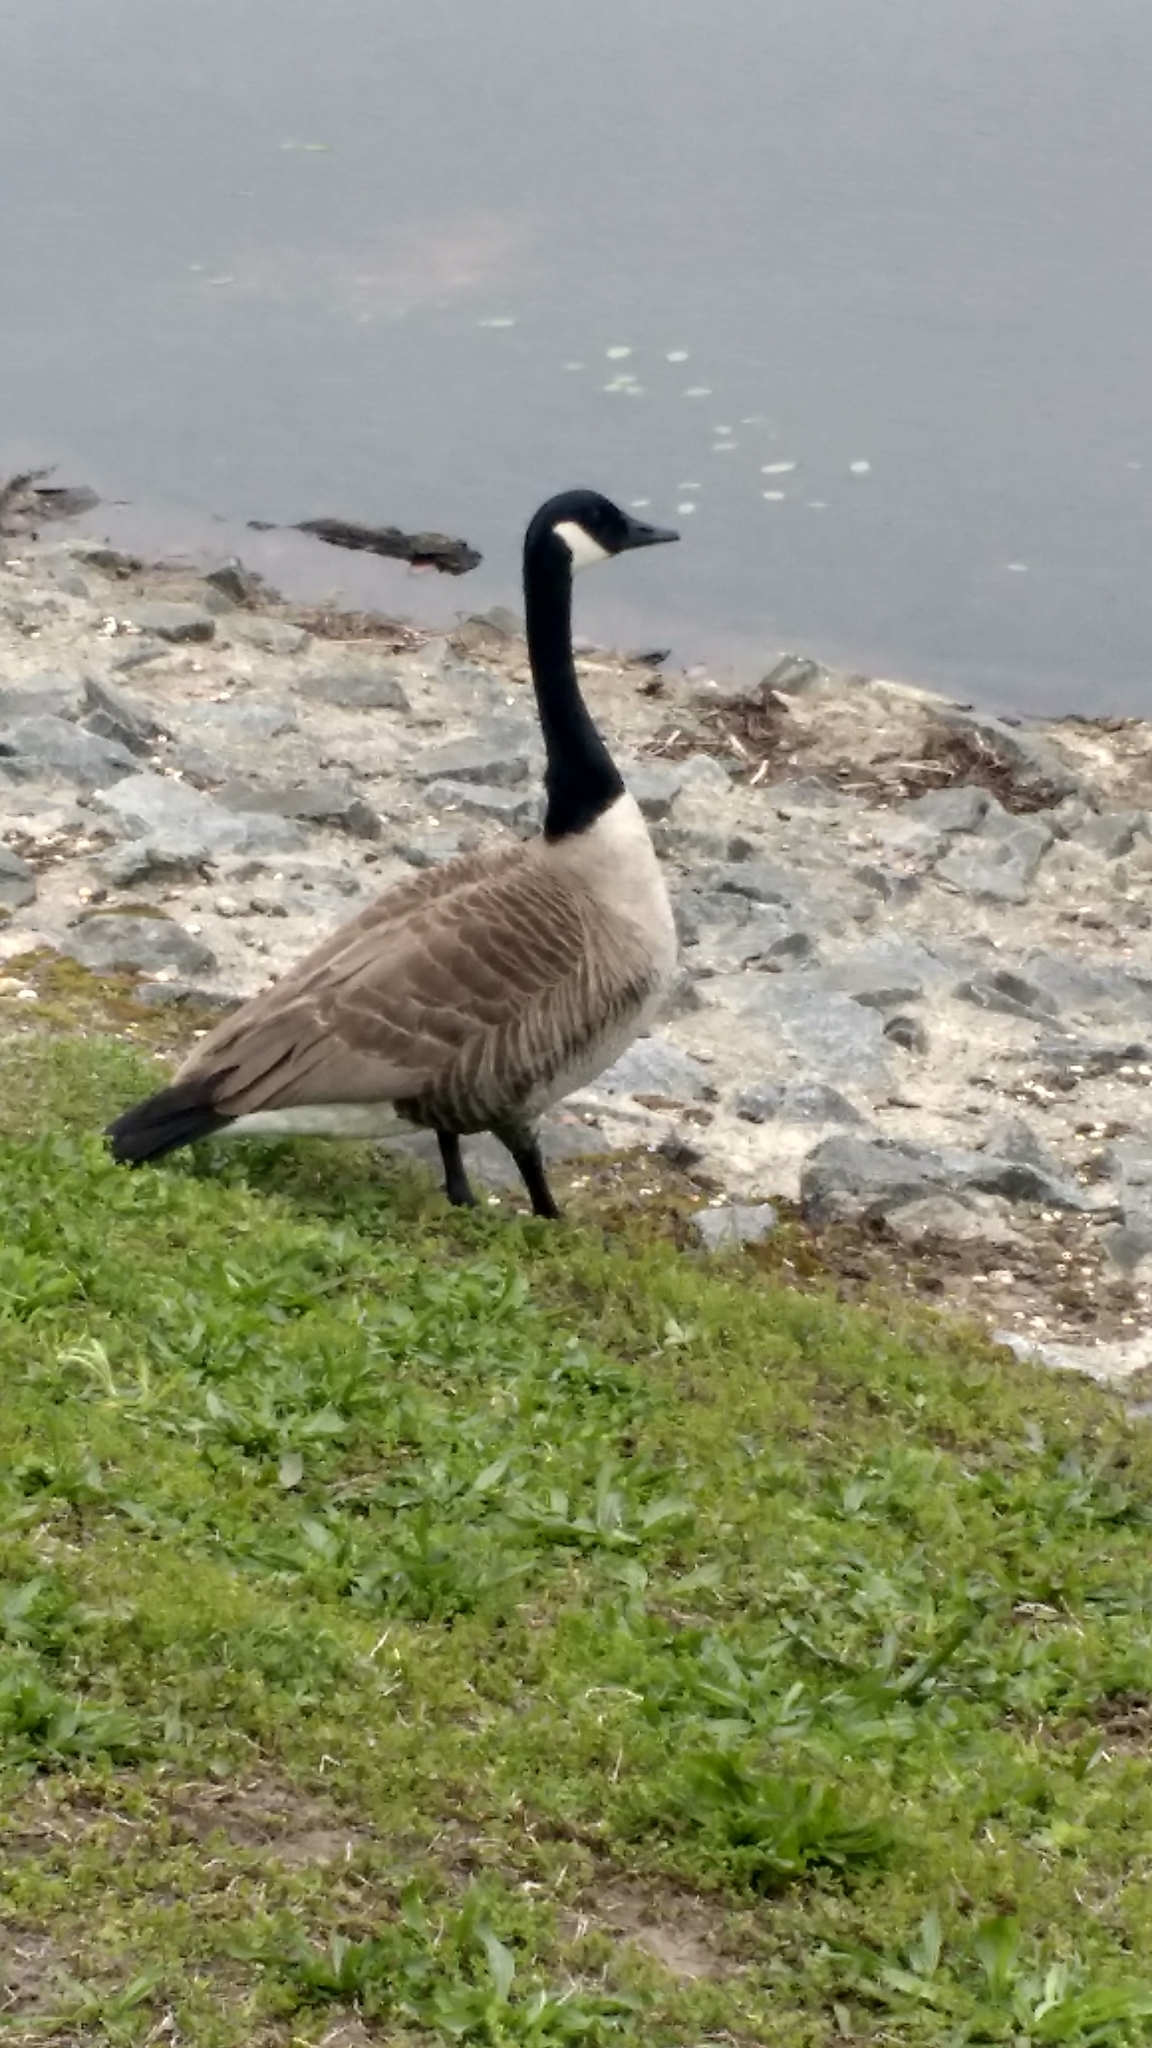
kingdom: Animalia
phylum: Chordata
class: Aves
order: Anseriformes
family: Anatidae
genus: Branta
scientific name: Branta canadensis
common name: Canada goose
